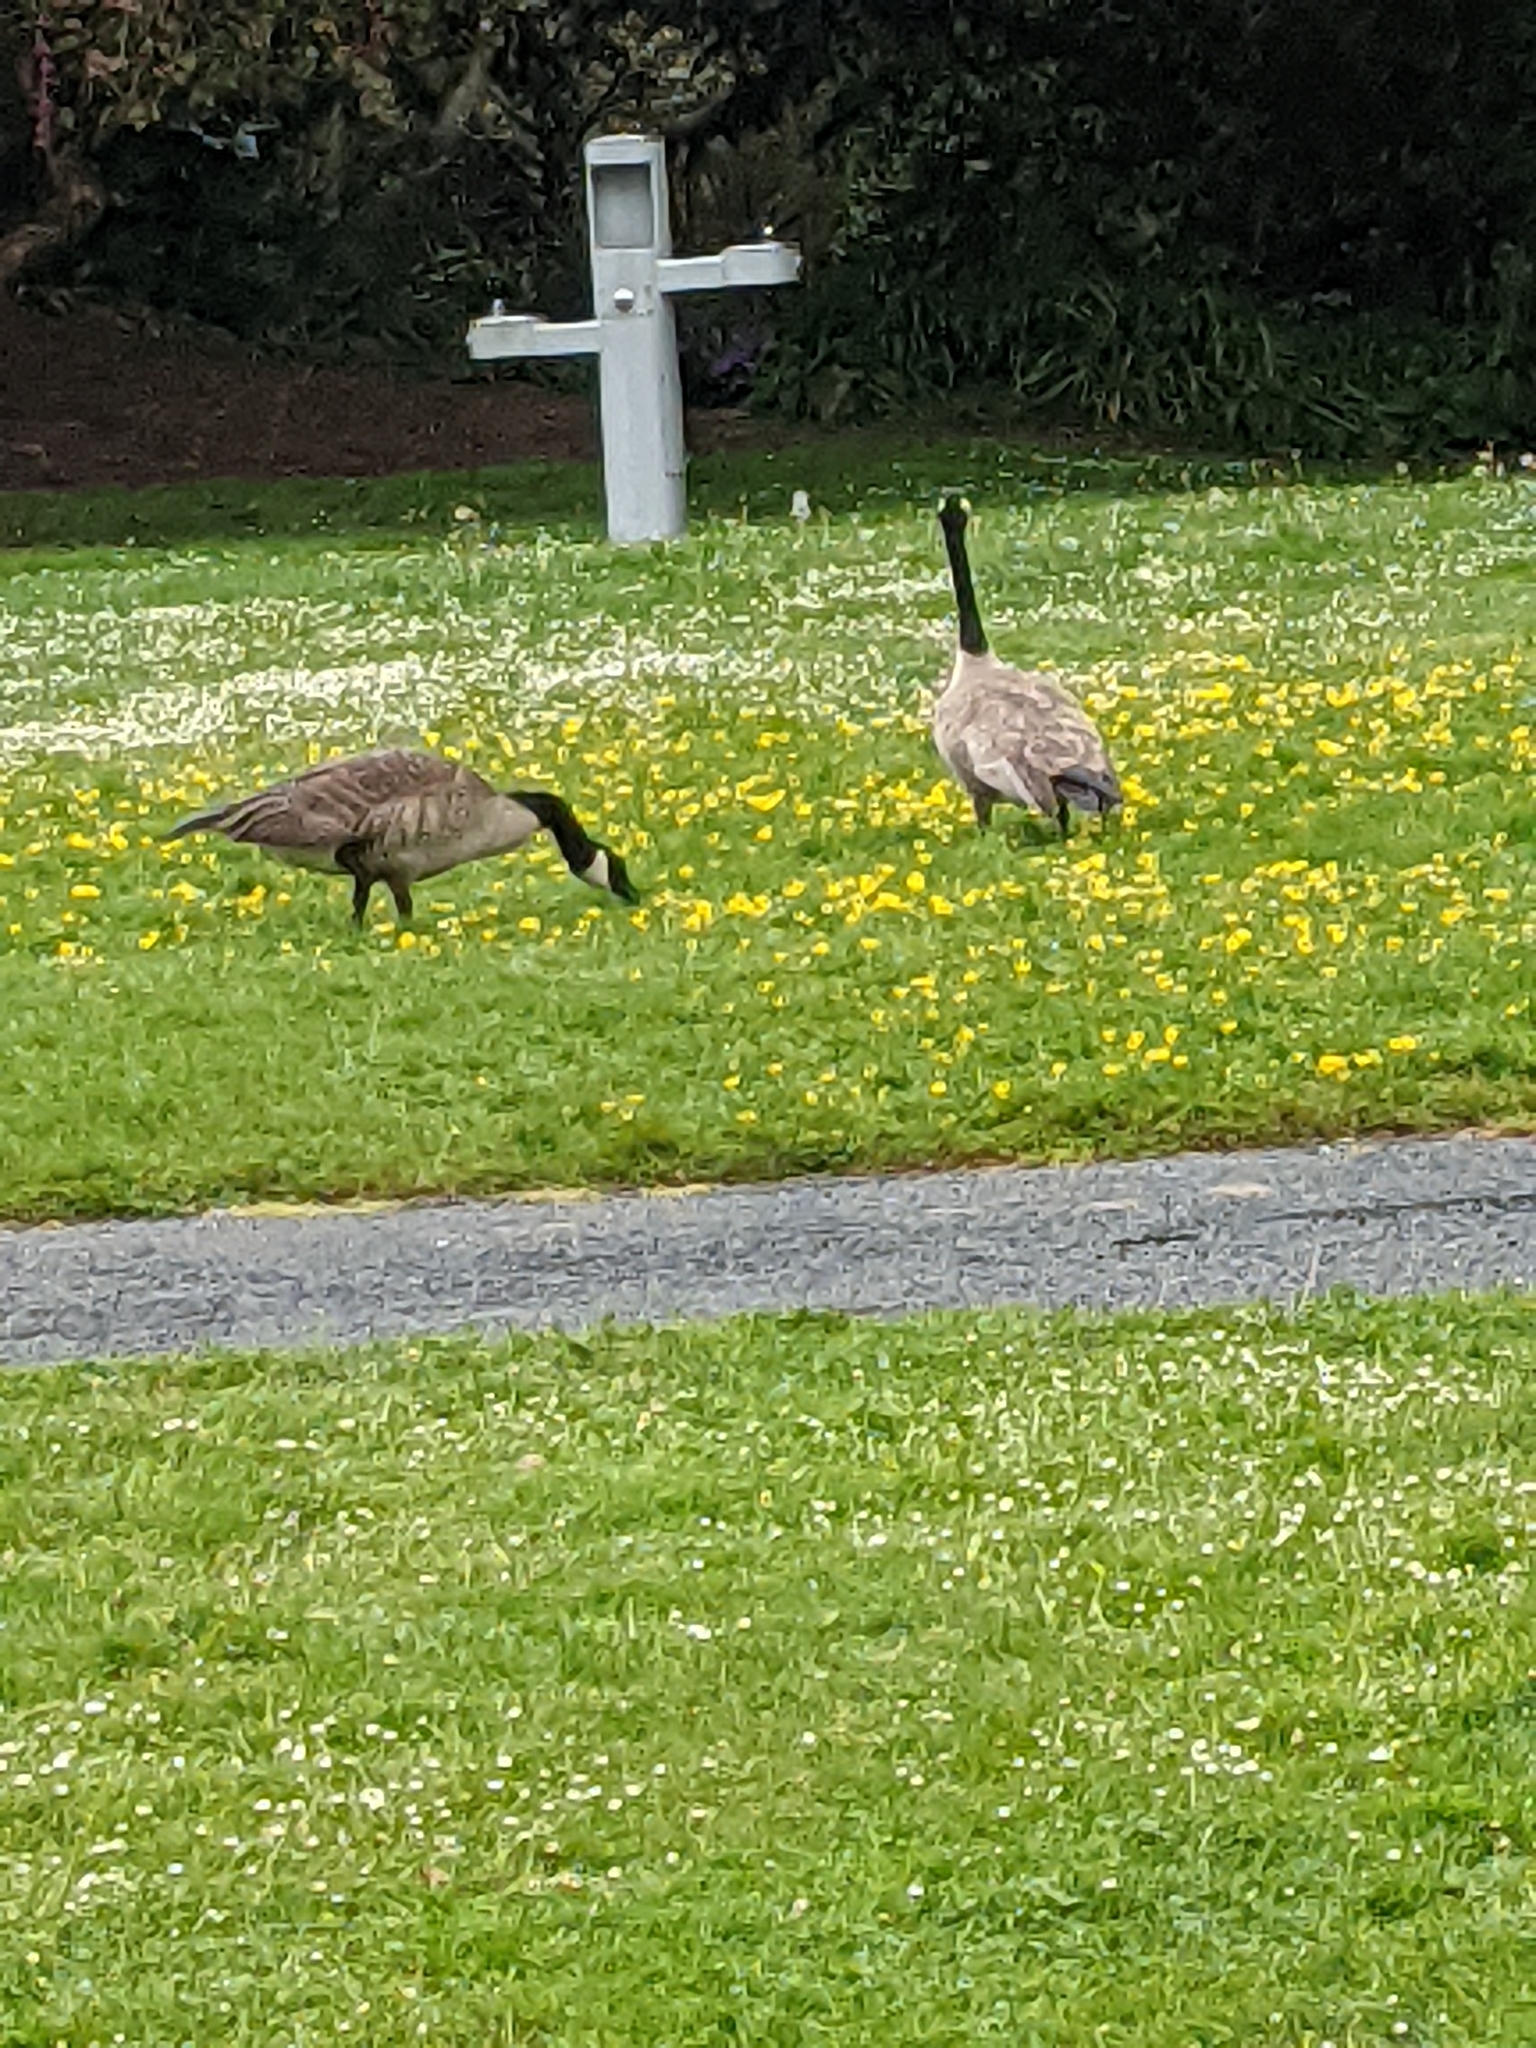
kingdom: Animalia
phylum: Chordata
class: Aves
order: Anseriformes
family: Anatidae
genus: Branta
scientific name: Branta canadensis
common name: Canada goose
